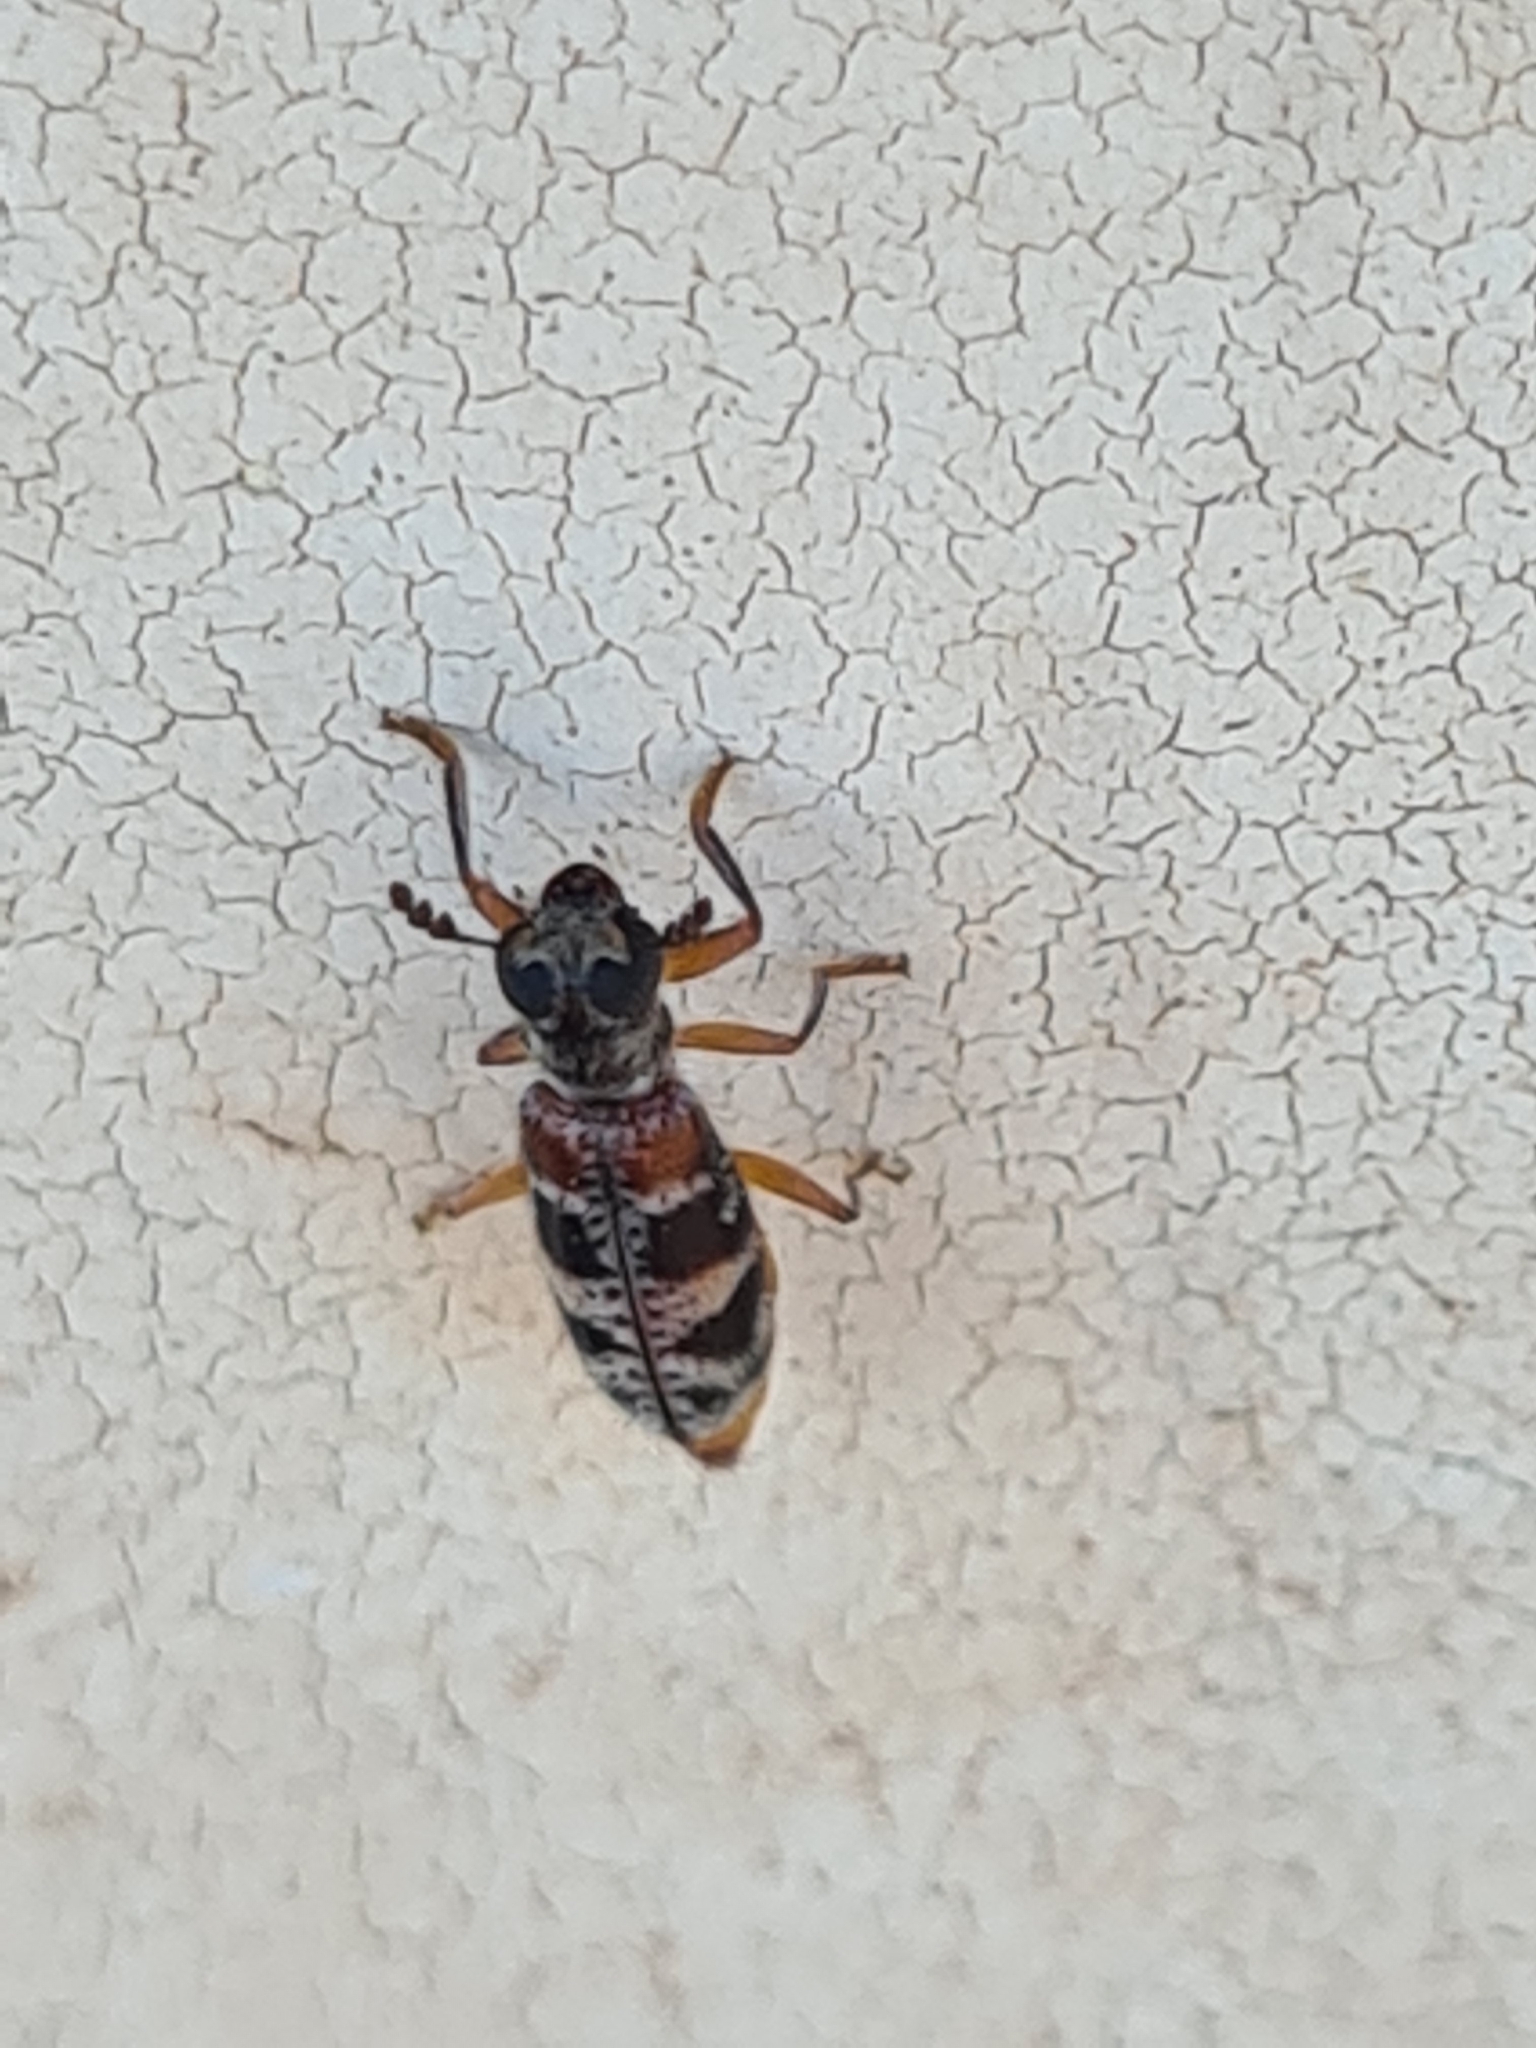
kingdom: Animalia
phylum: Arthropoda
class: Insecta
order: Coleoptera
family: Cleridae
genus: Megaphloeus
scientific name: Megaphloeus mucoreus
